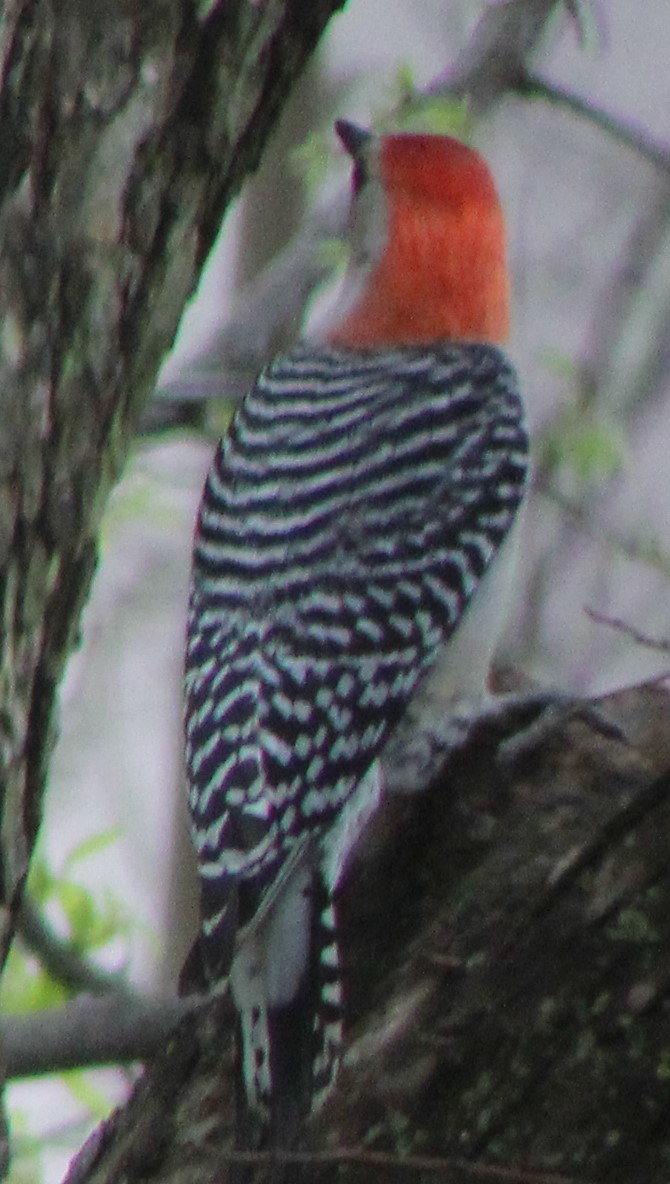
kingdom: Animalia
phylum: Chordata
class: Aves
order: Piciformes
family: Picidae
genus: Melanerpes
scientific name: Melanerpes carolinus
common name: Red-bellied woodpecker
